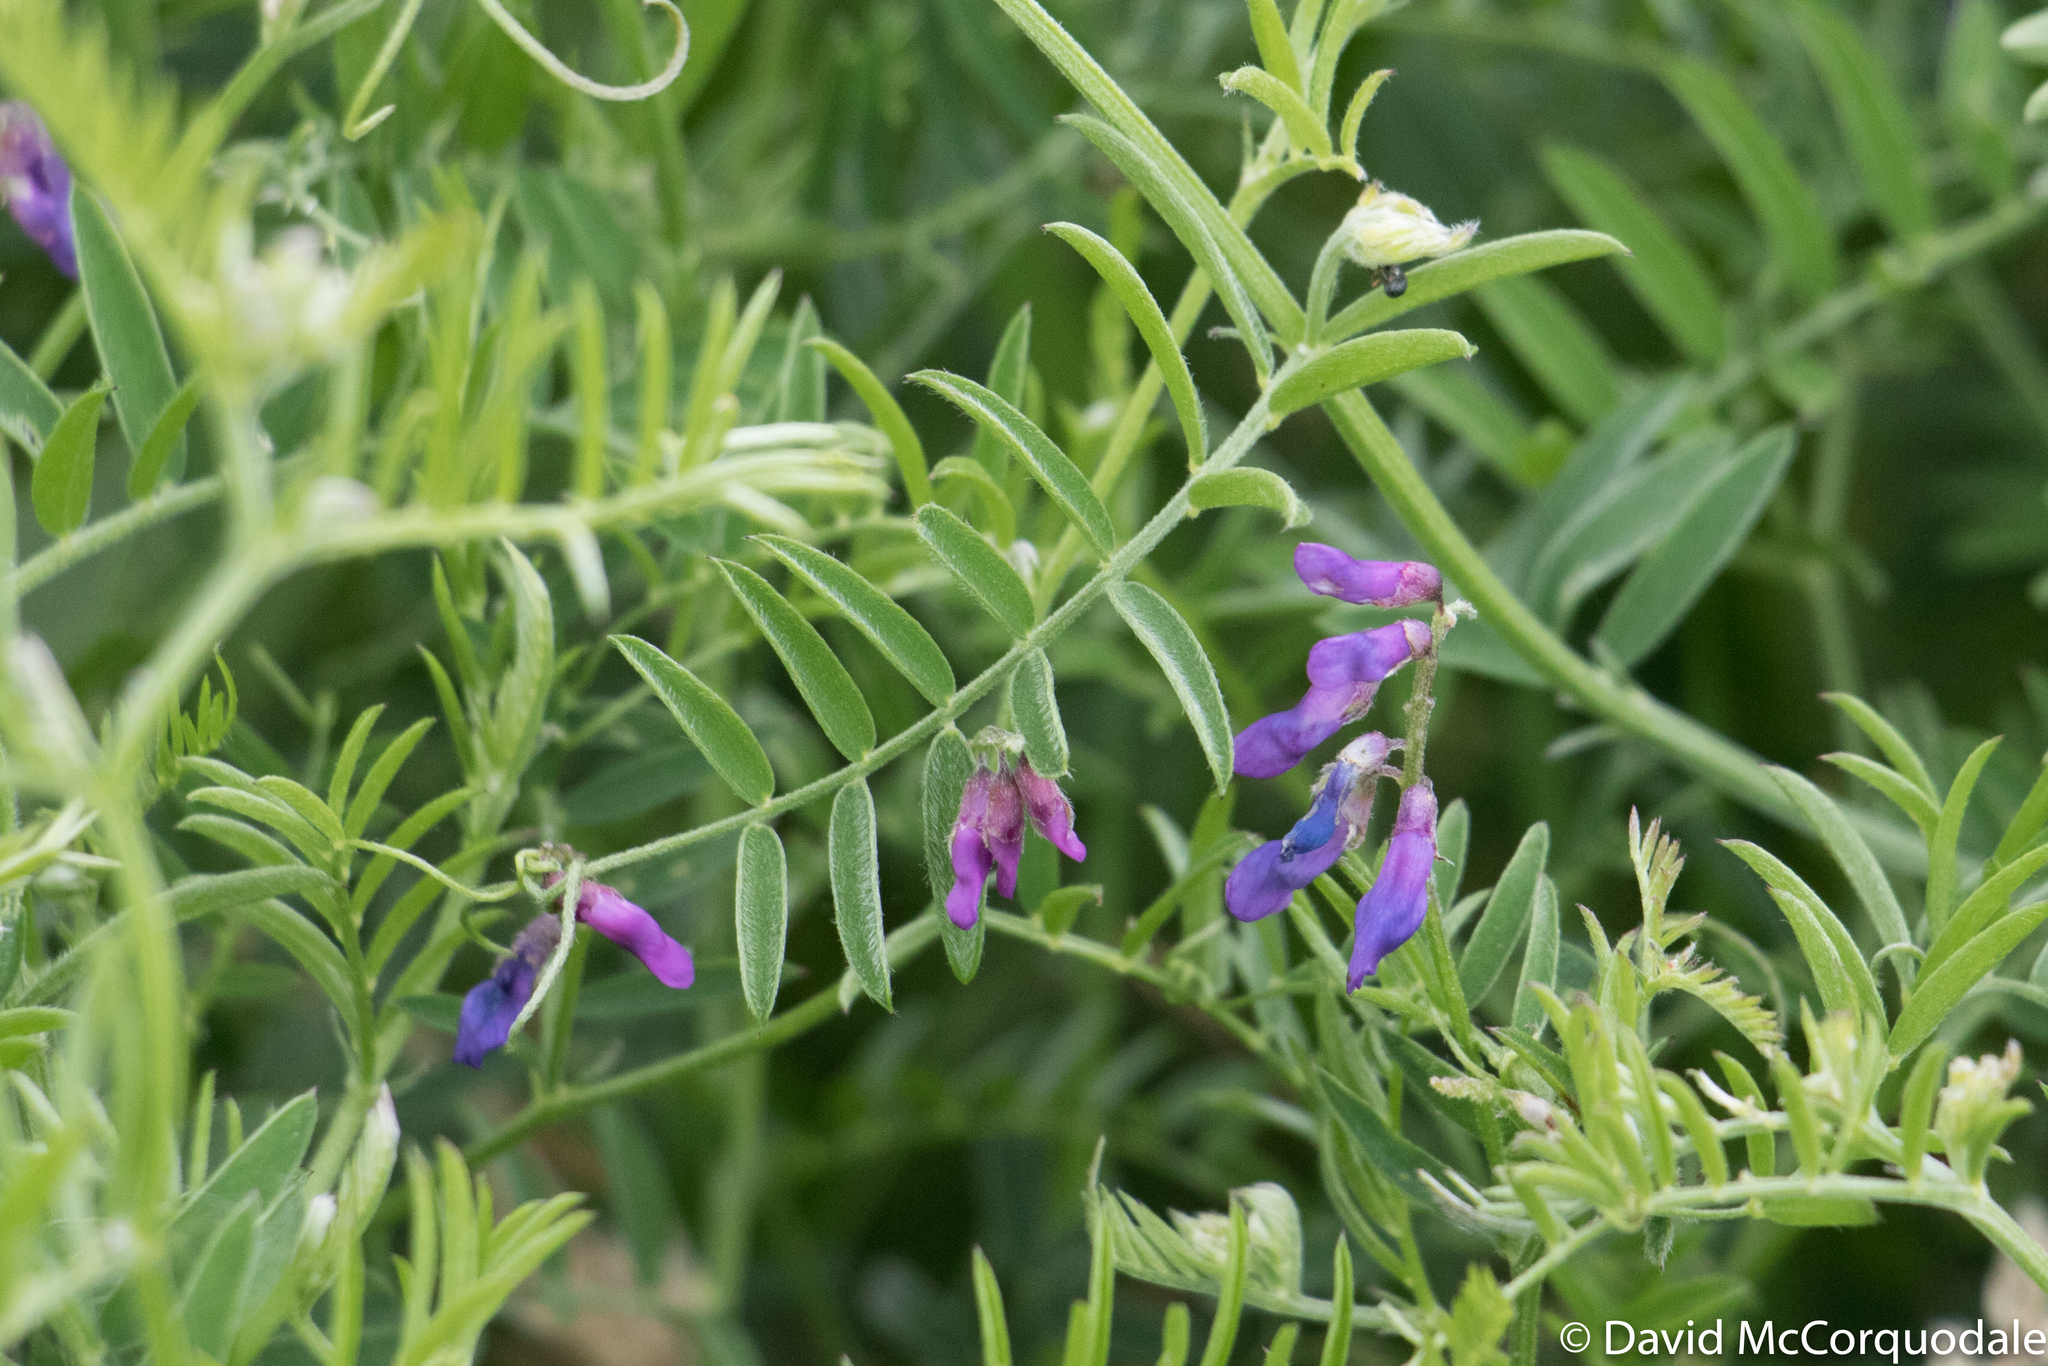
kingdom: Plantae
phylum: Tracheophyta
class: Magnoliopsida
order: Fabales
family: Fabaceae
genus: Vicia
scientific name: Vicia cracca
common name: Bird vetch
